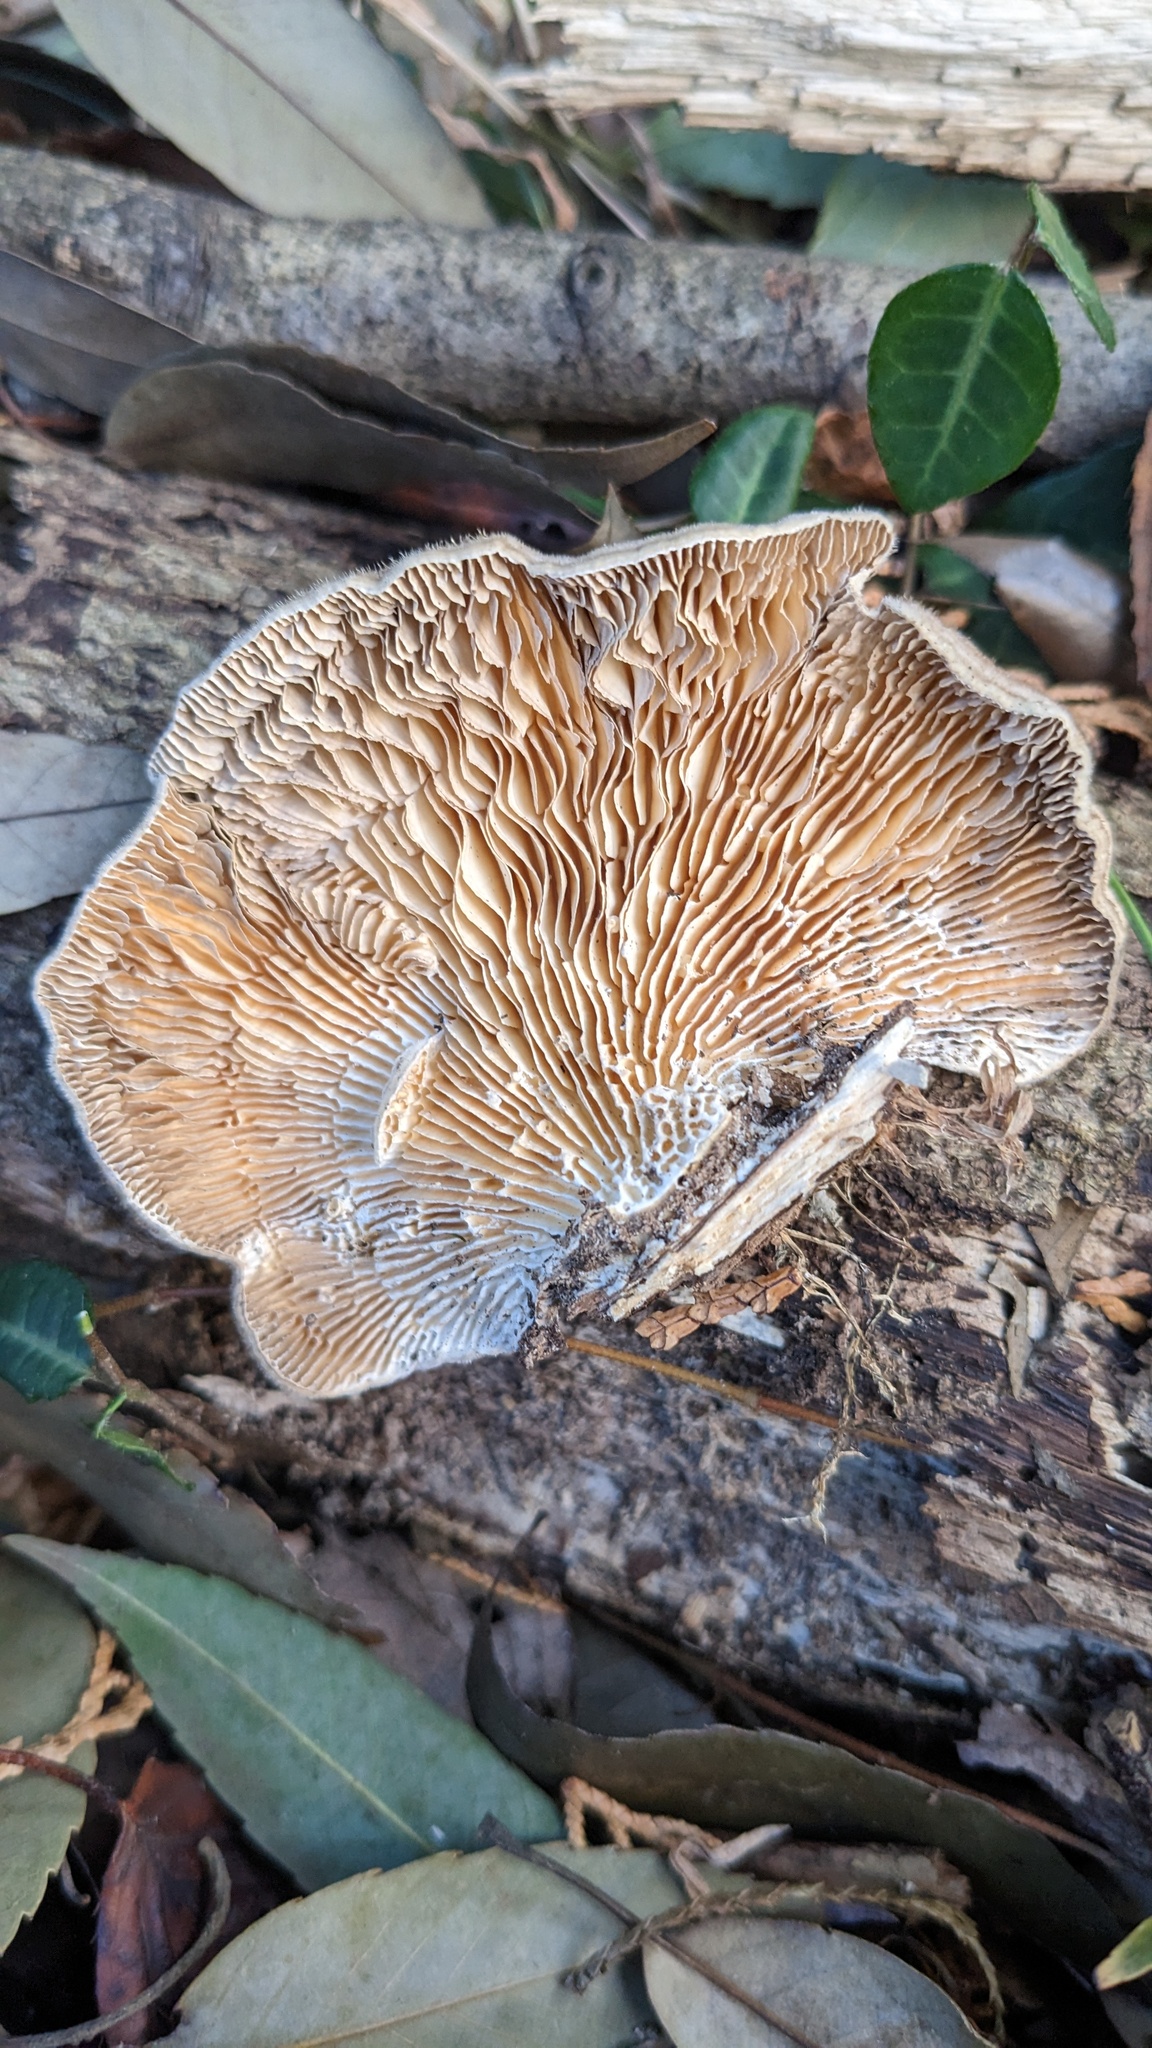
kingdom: Fungi
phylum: Basidiomycota
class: Agaricomycetes
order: Polyporales
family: Polyporaceae
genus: Lenzites
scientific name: Lenzites betulinus
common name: Birch mazegill
